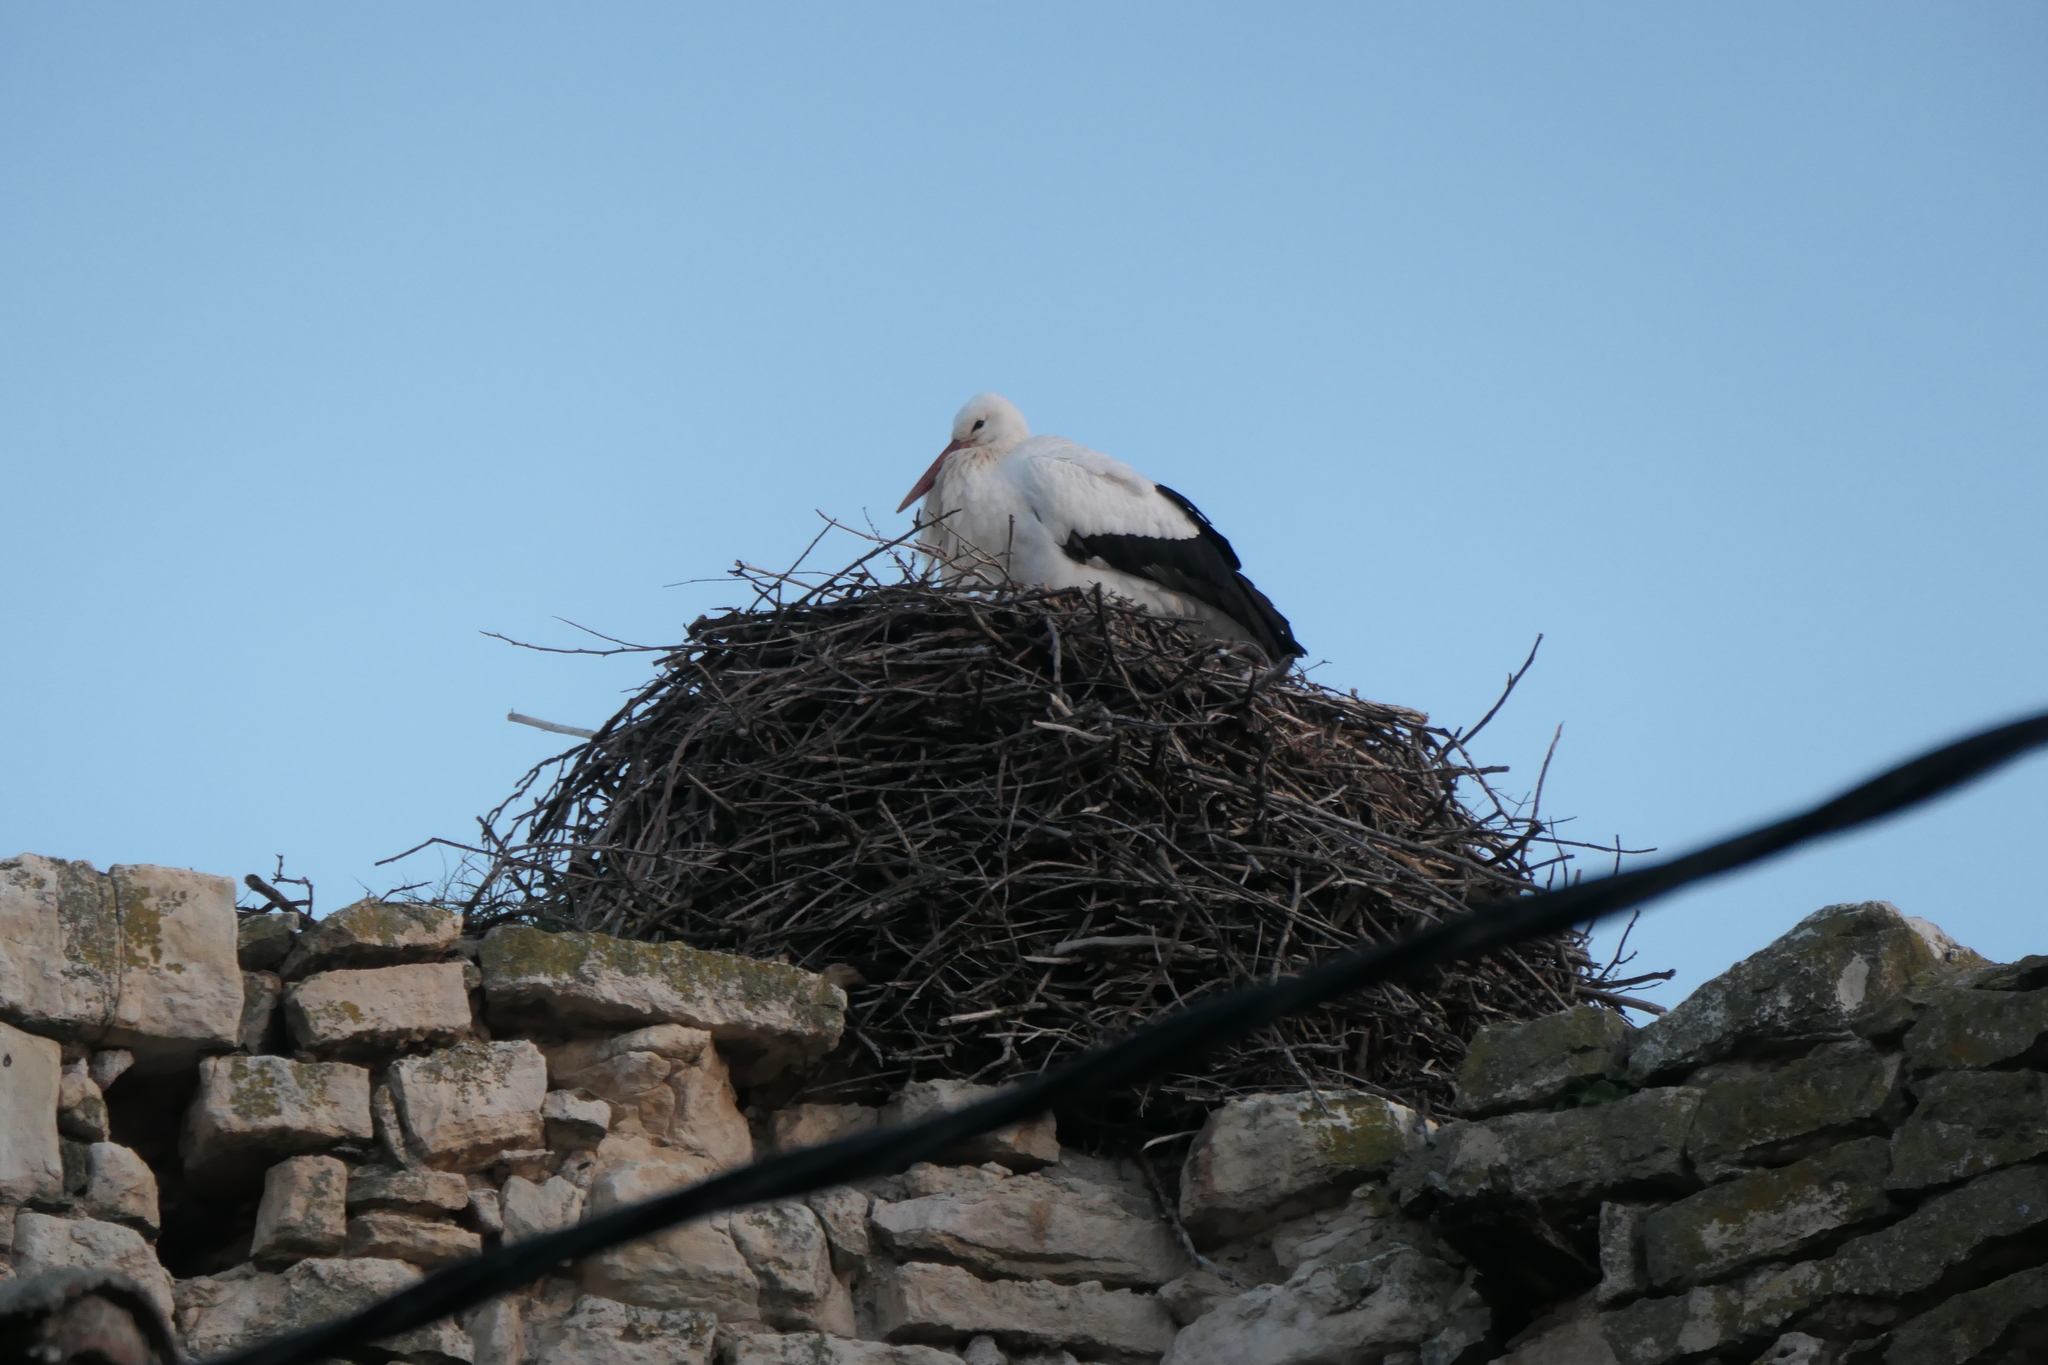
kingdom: Animalia
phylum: Chordata
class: Aves
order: Ciconiiformes
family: Ciconiidae
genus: Ciconia
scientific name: Ciconia ciconia
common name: White stork
